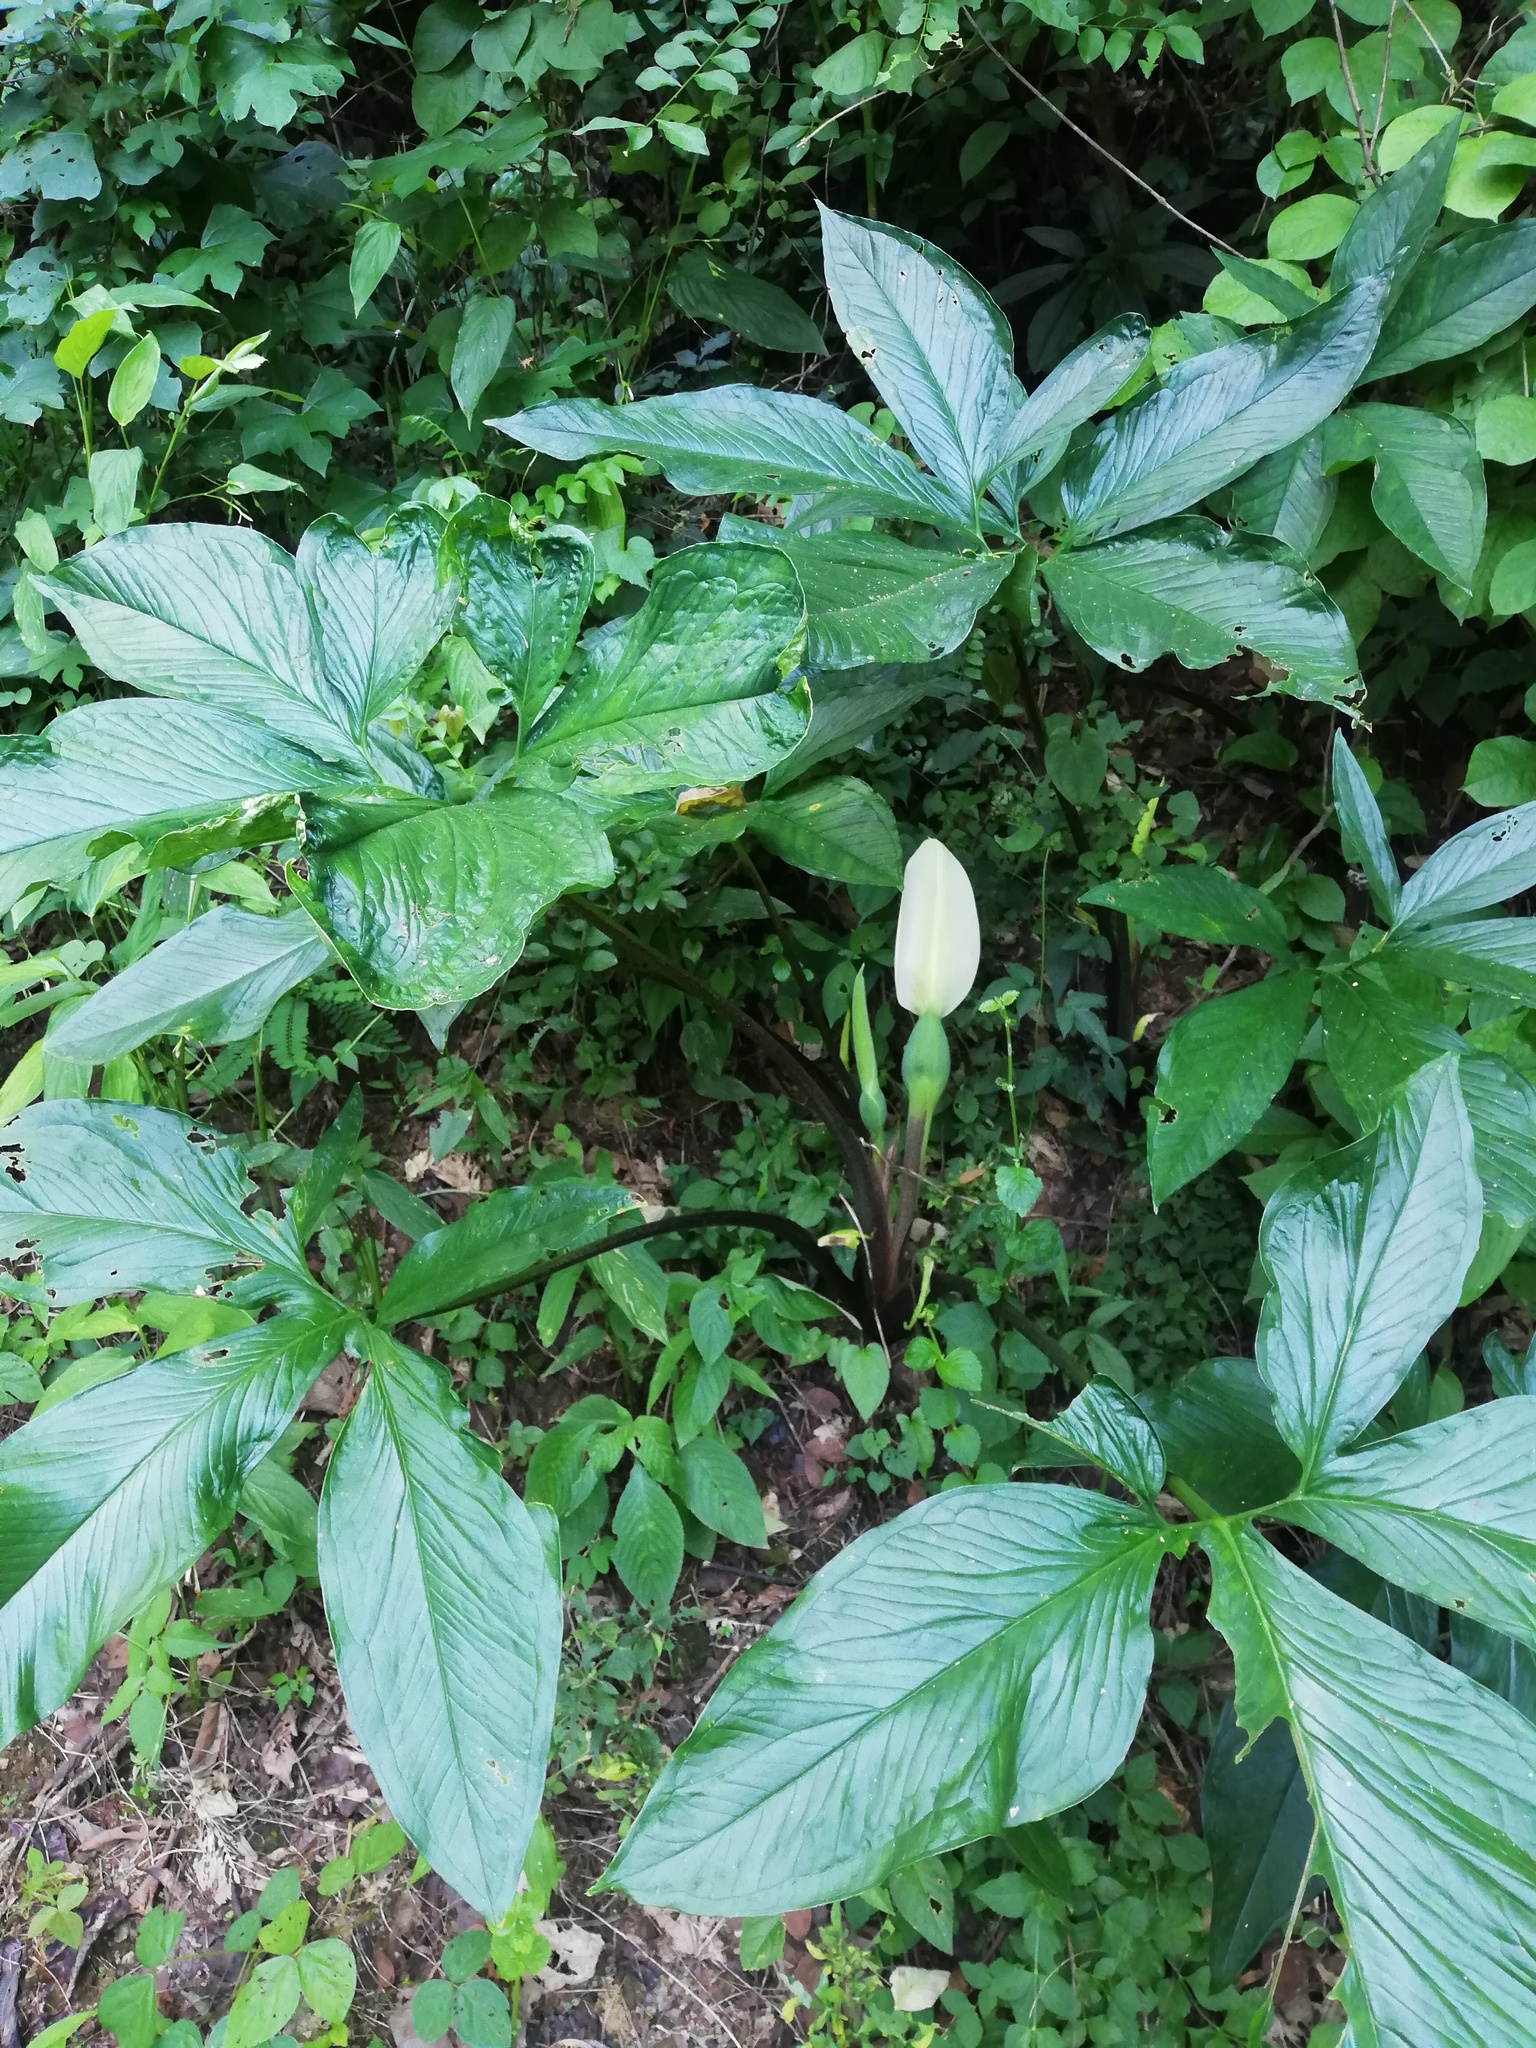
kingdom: Plantae
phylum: Tracheophyta
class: Liliopsida
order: Alismatales
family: Araceae
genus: Xanthosoma
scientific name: Xanthosoma wendlandii
